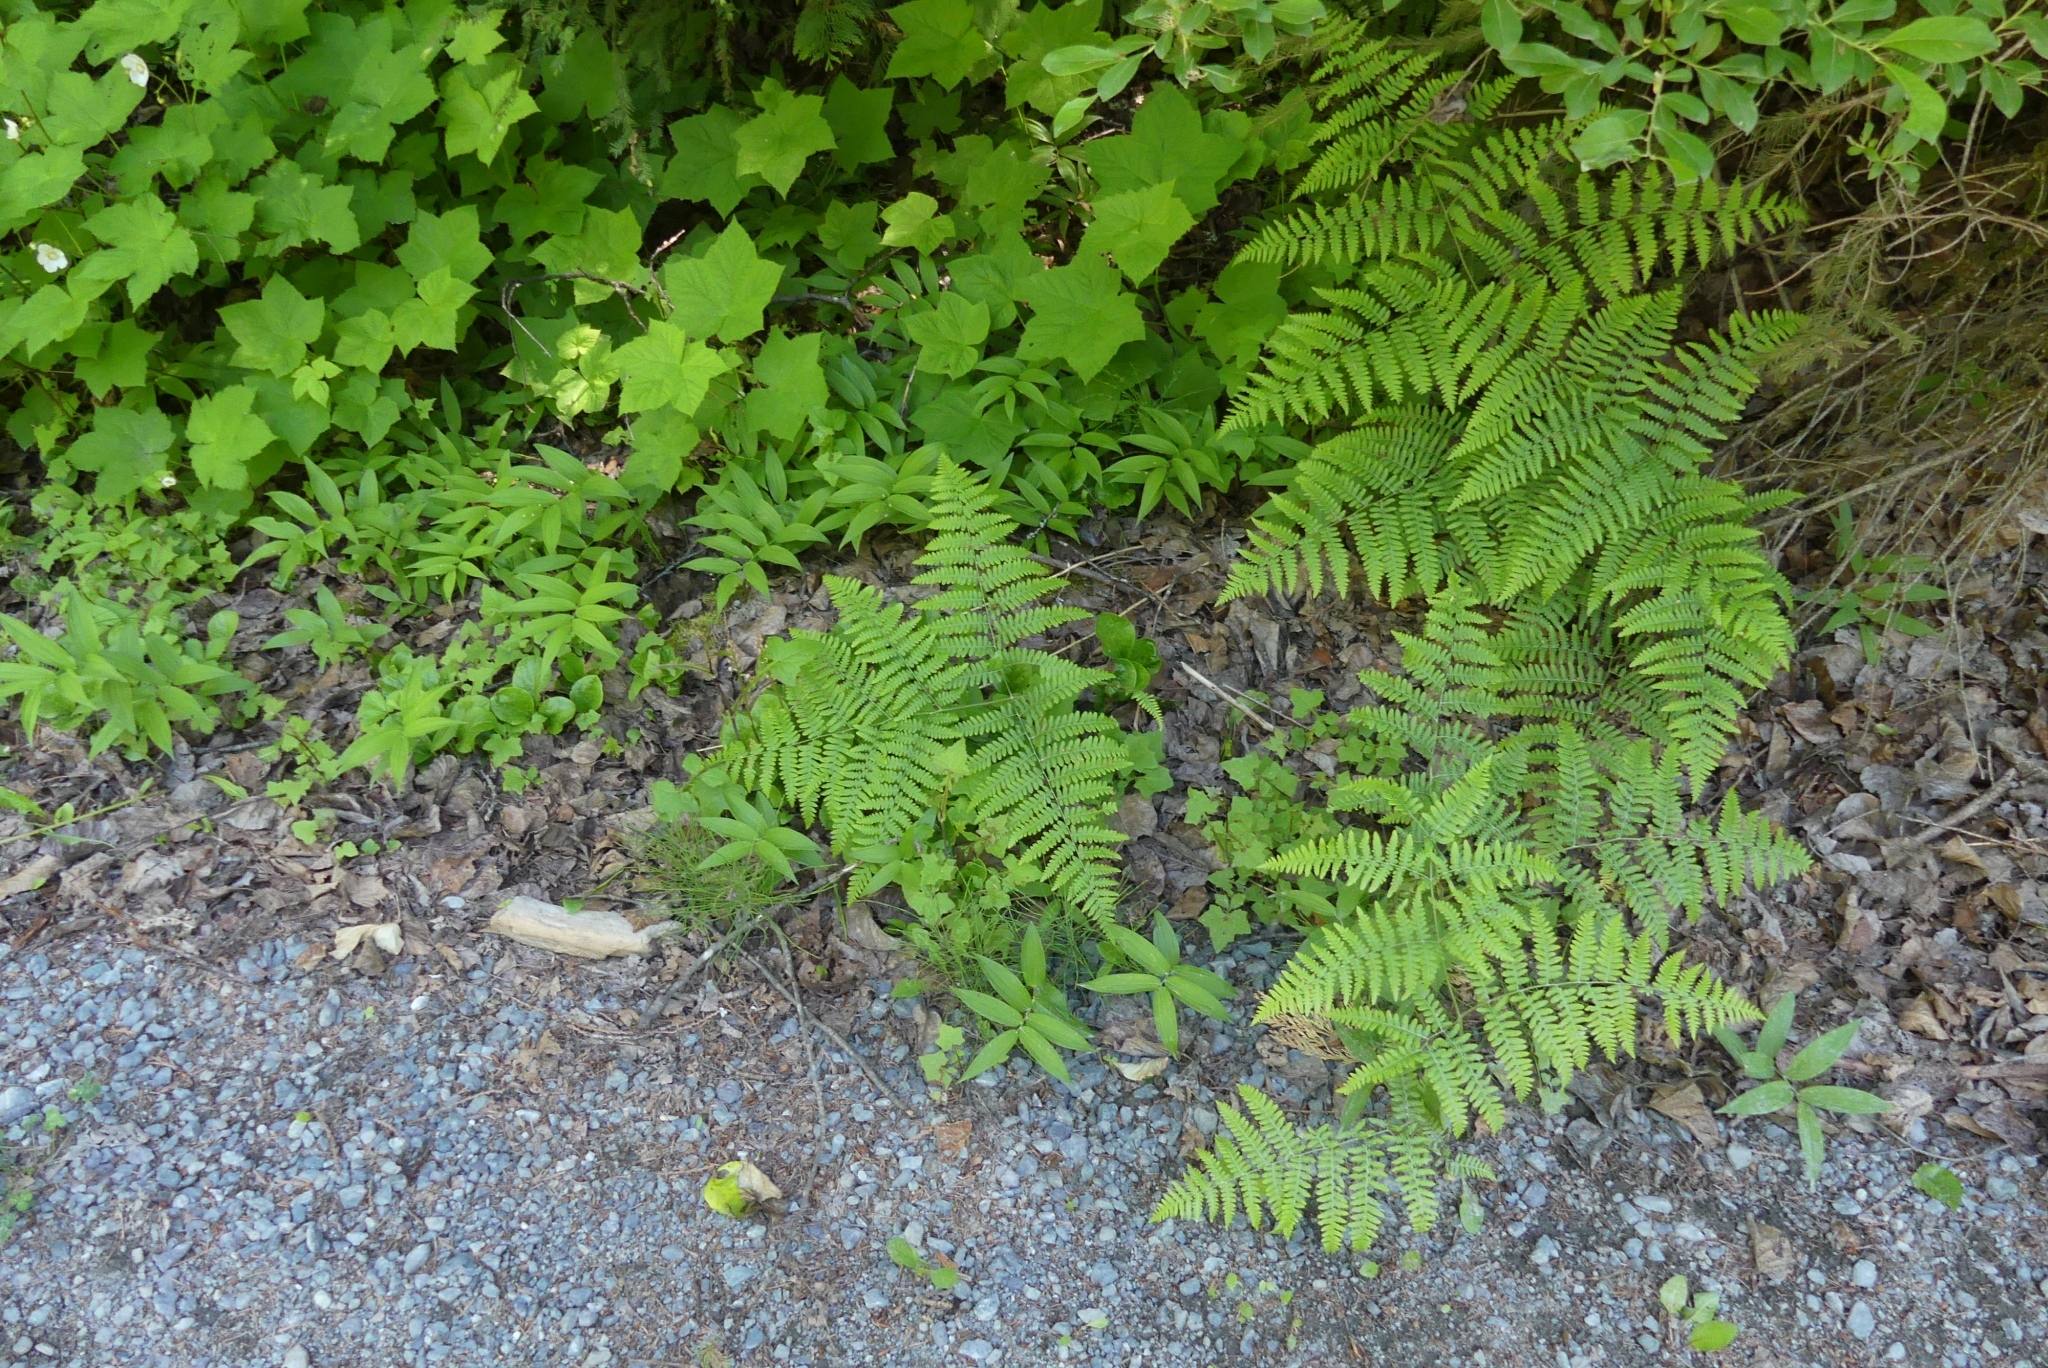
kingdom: Plantae
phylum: Tracheophyta
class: Polypodiopsida
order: Polypodiales
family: Dennstaedtiaceae
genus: Pteridium
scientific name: Pteridium aquilinum
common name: Bracken
